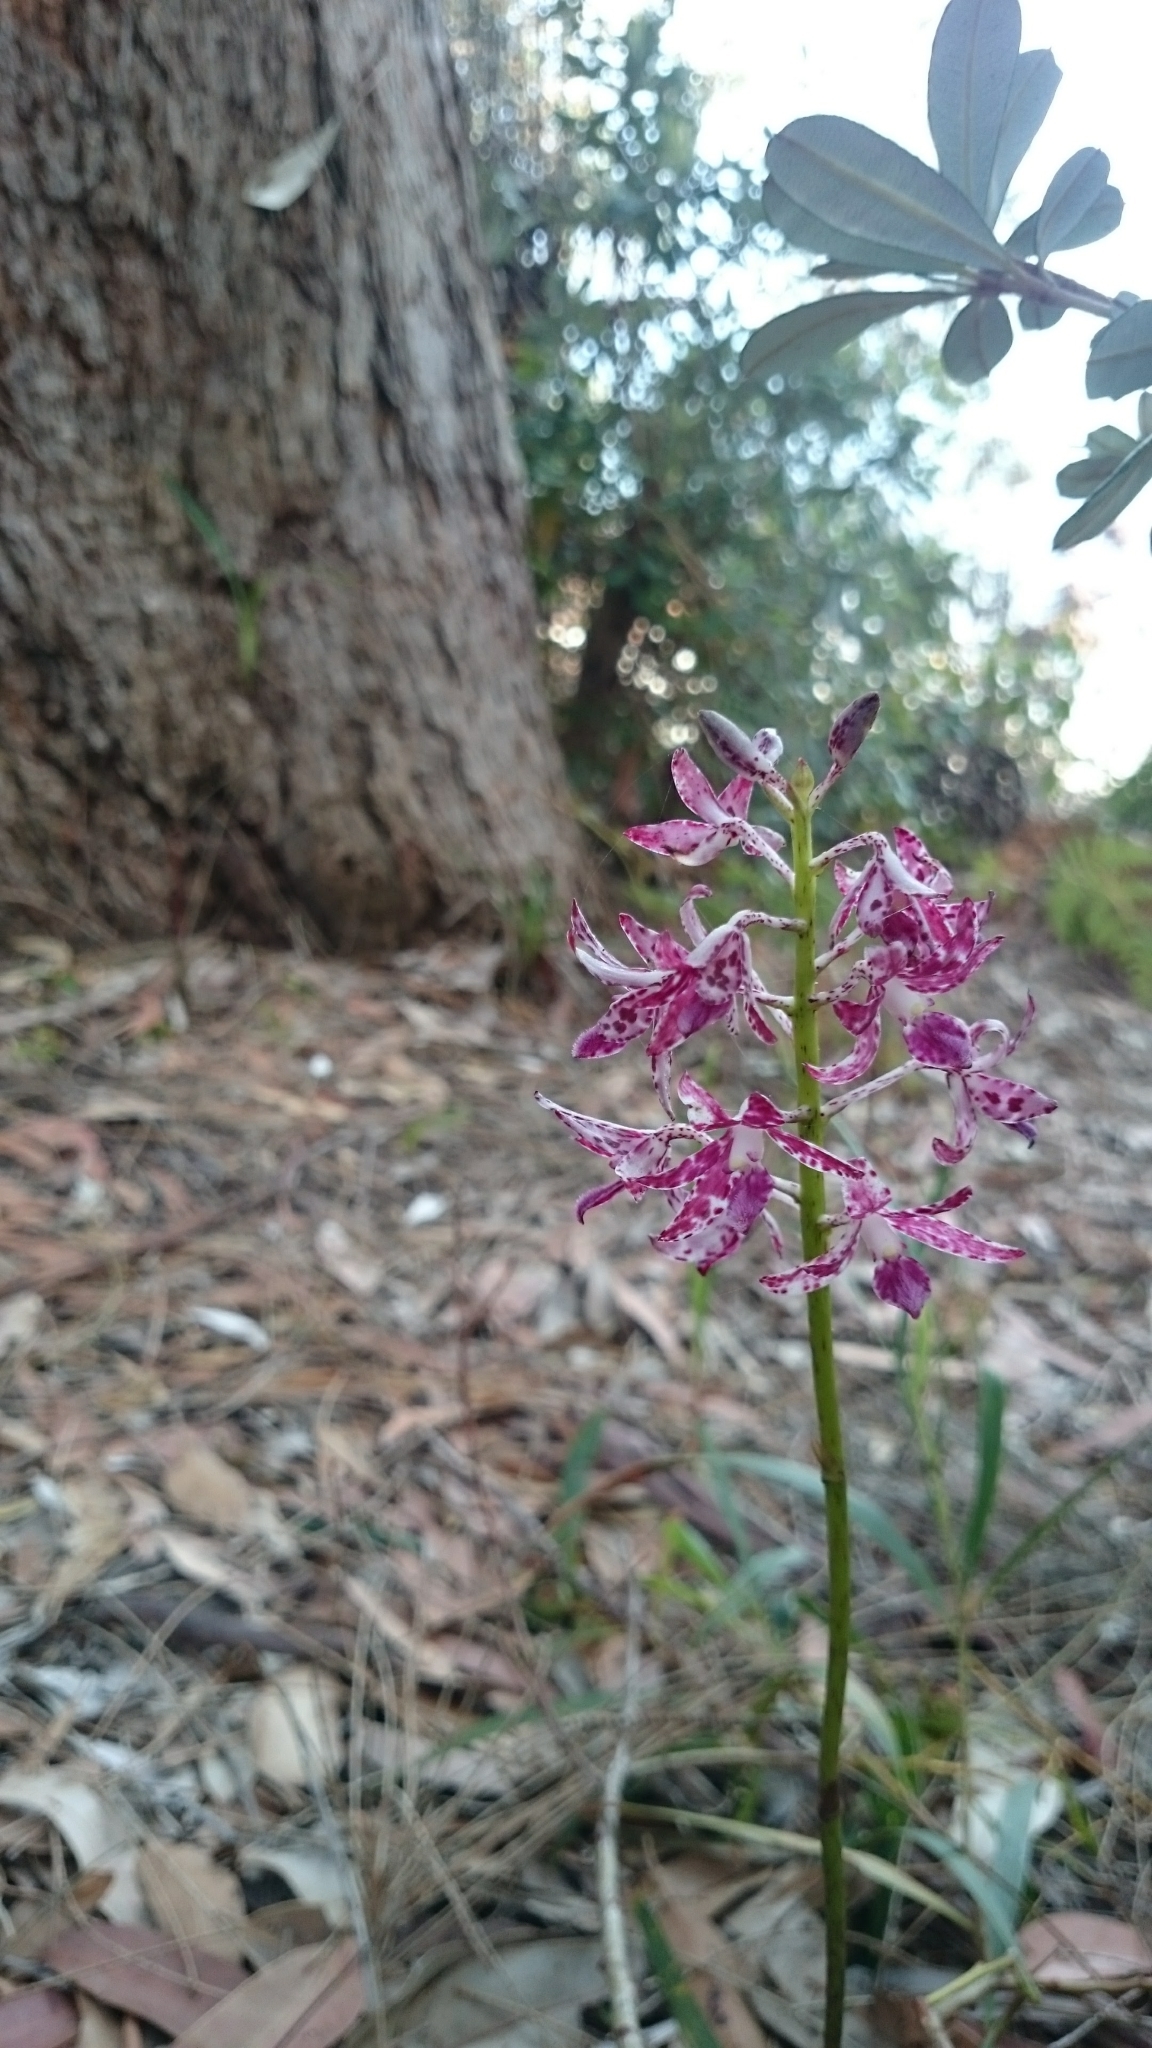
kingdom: Plantae
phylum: Tracheophyta
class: Liliopsida
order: Asparagales
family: Orchidaceae
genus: Dipodium
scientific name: Dipodium variegatum
